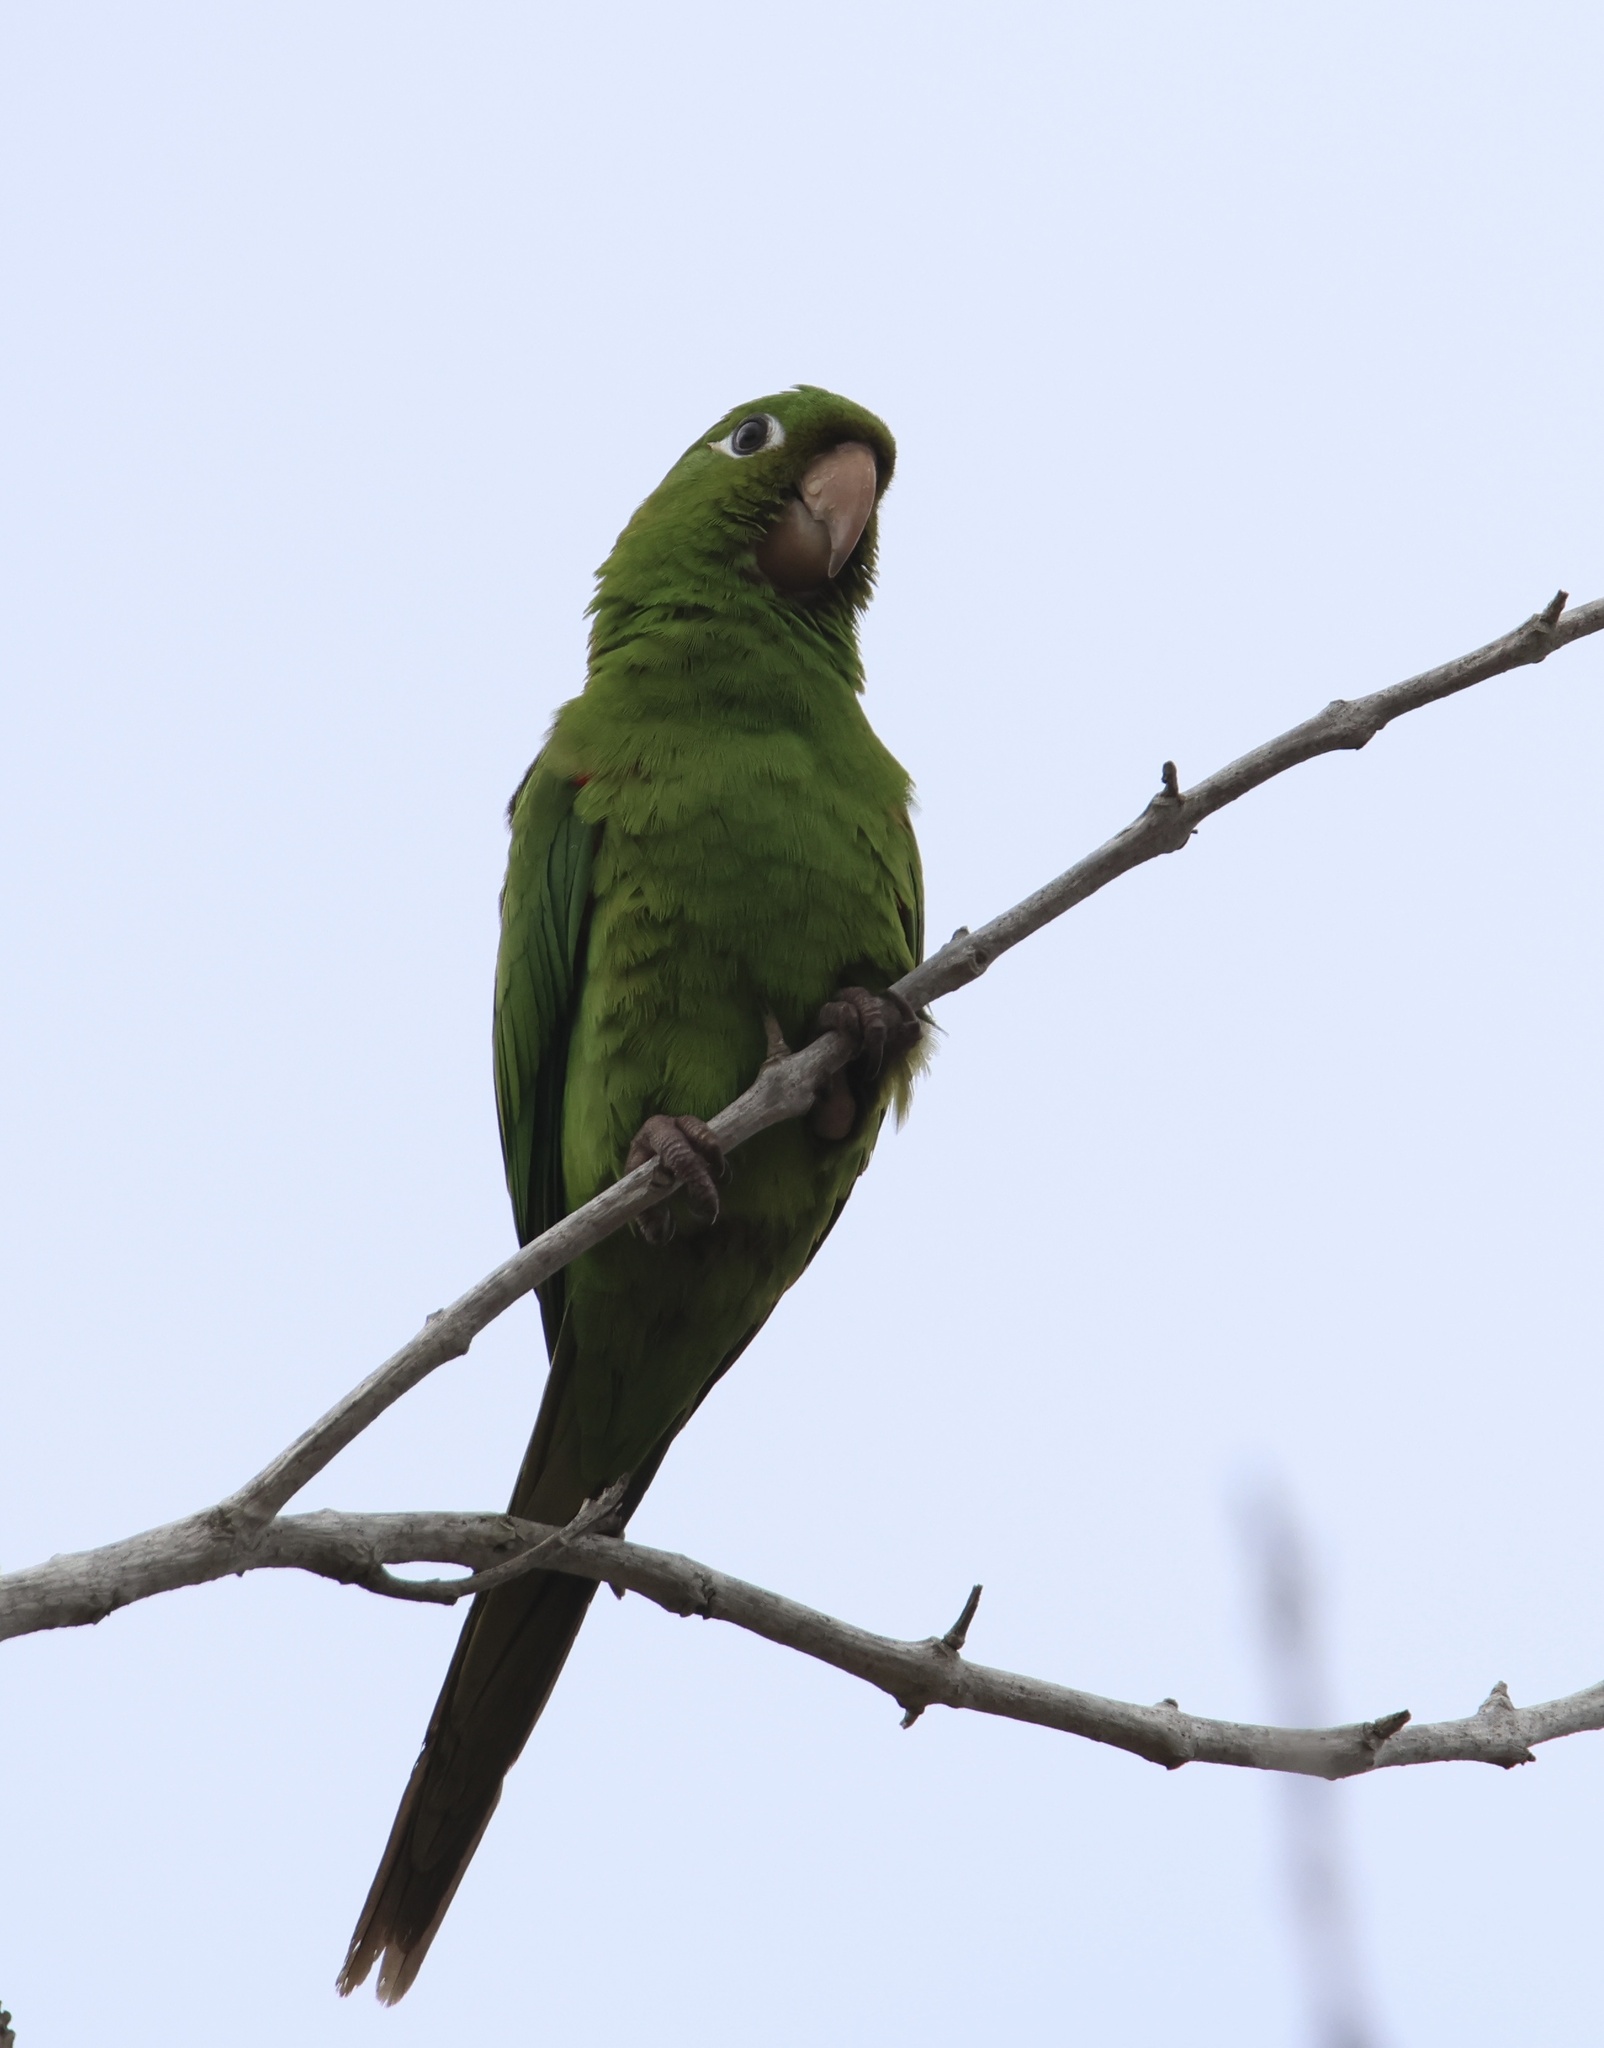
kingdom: Animalia
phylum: Chordata
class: Aves
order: Psittaciformes
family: Psittacidae
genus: Aratinga
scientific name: Aratinga chloroptera
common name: Hispaniolan parakeet
